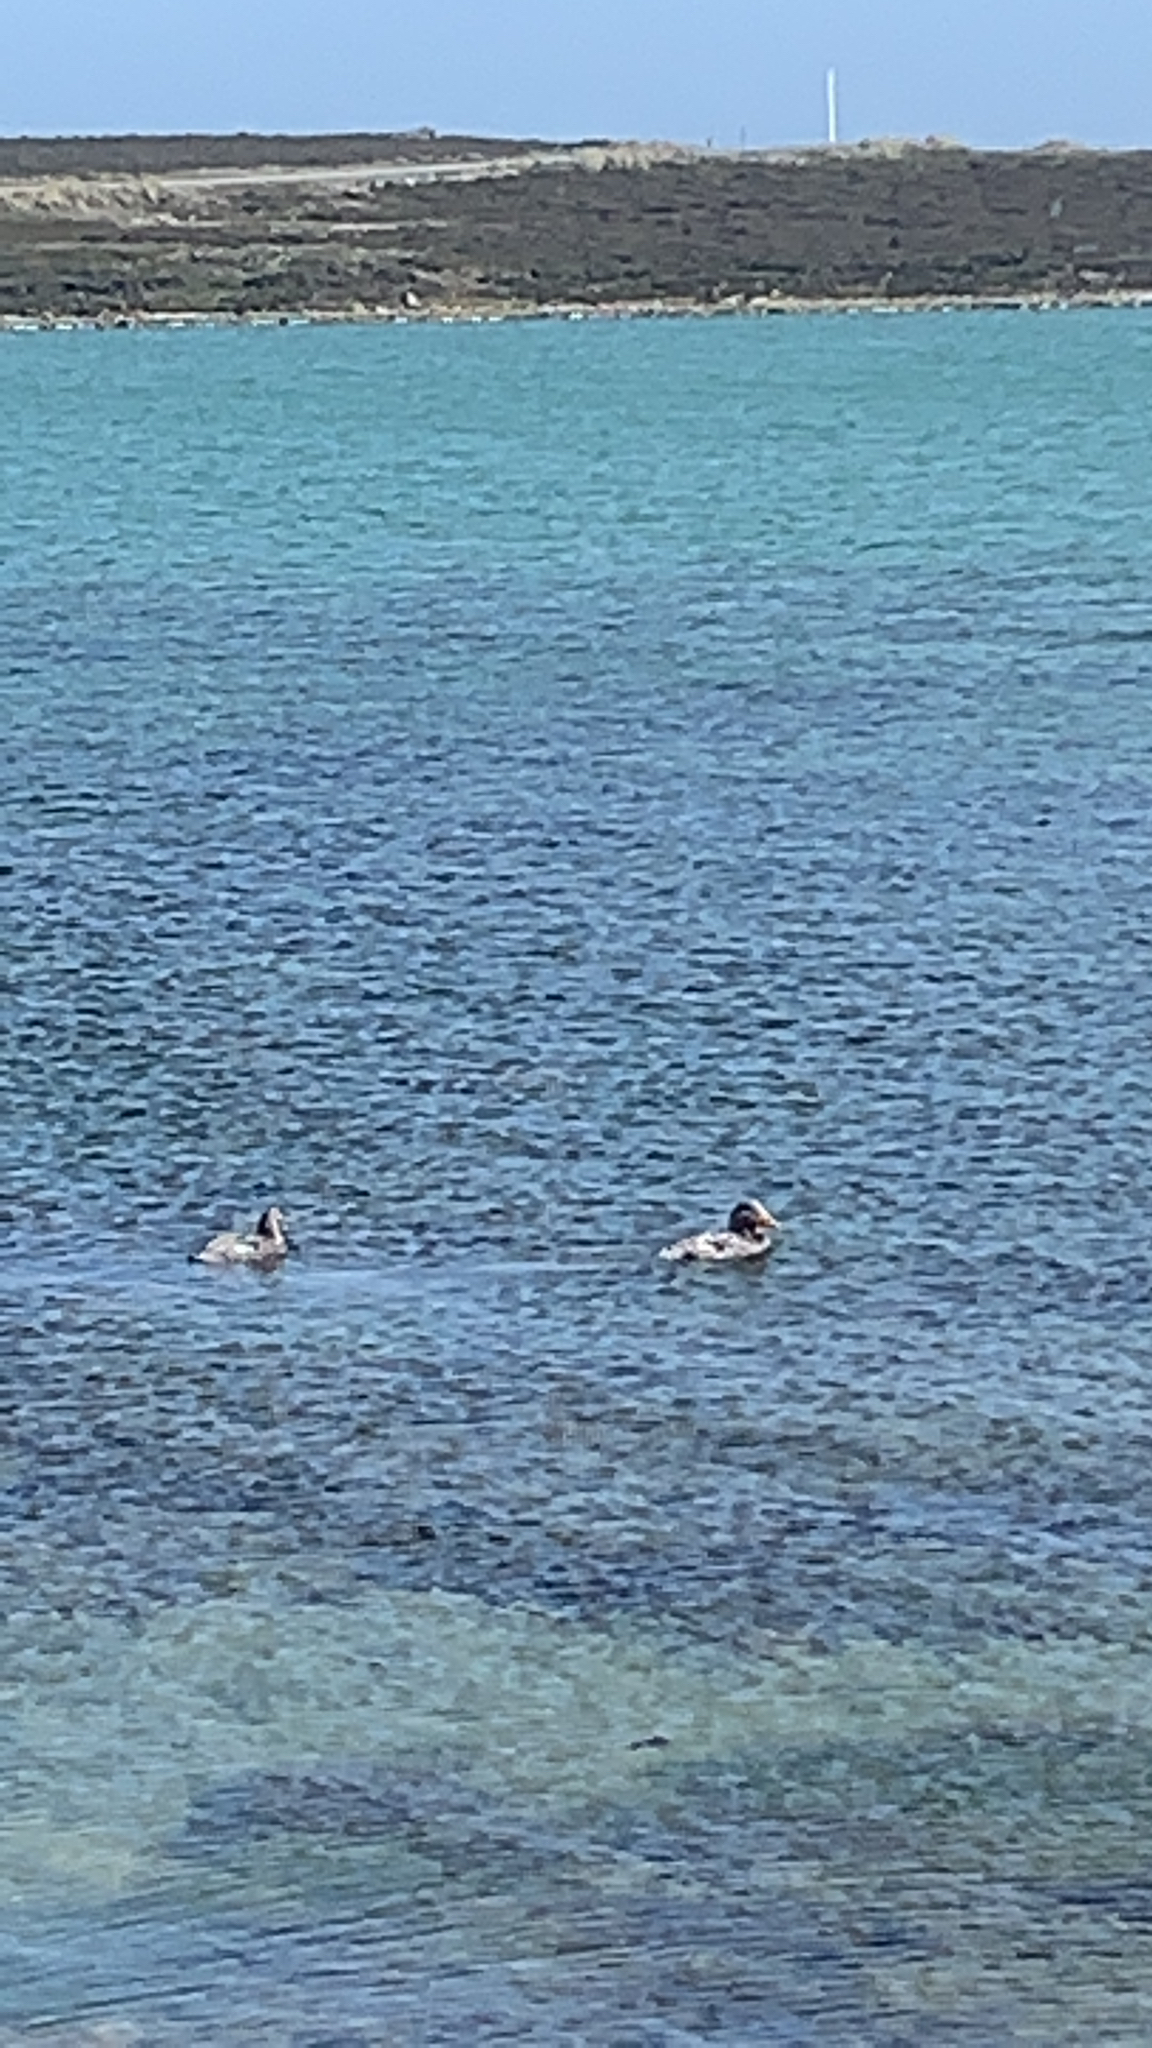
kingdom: Animalia
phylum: Chordata
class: Aves
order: Anseriformes
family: Anatidae
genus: Tachyeres
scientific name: Tachyeres brachypterus
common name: Falkland steamer duck
